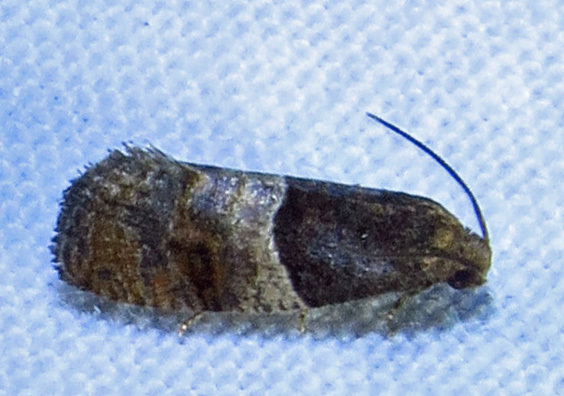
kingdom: Animalia
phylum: Arthropoda
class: Insecta
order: Lepidoptera
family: Tortricidae
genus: Larisa
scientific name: Larisa subsolana
